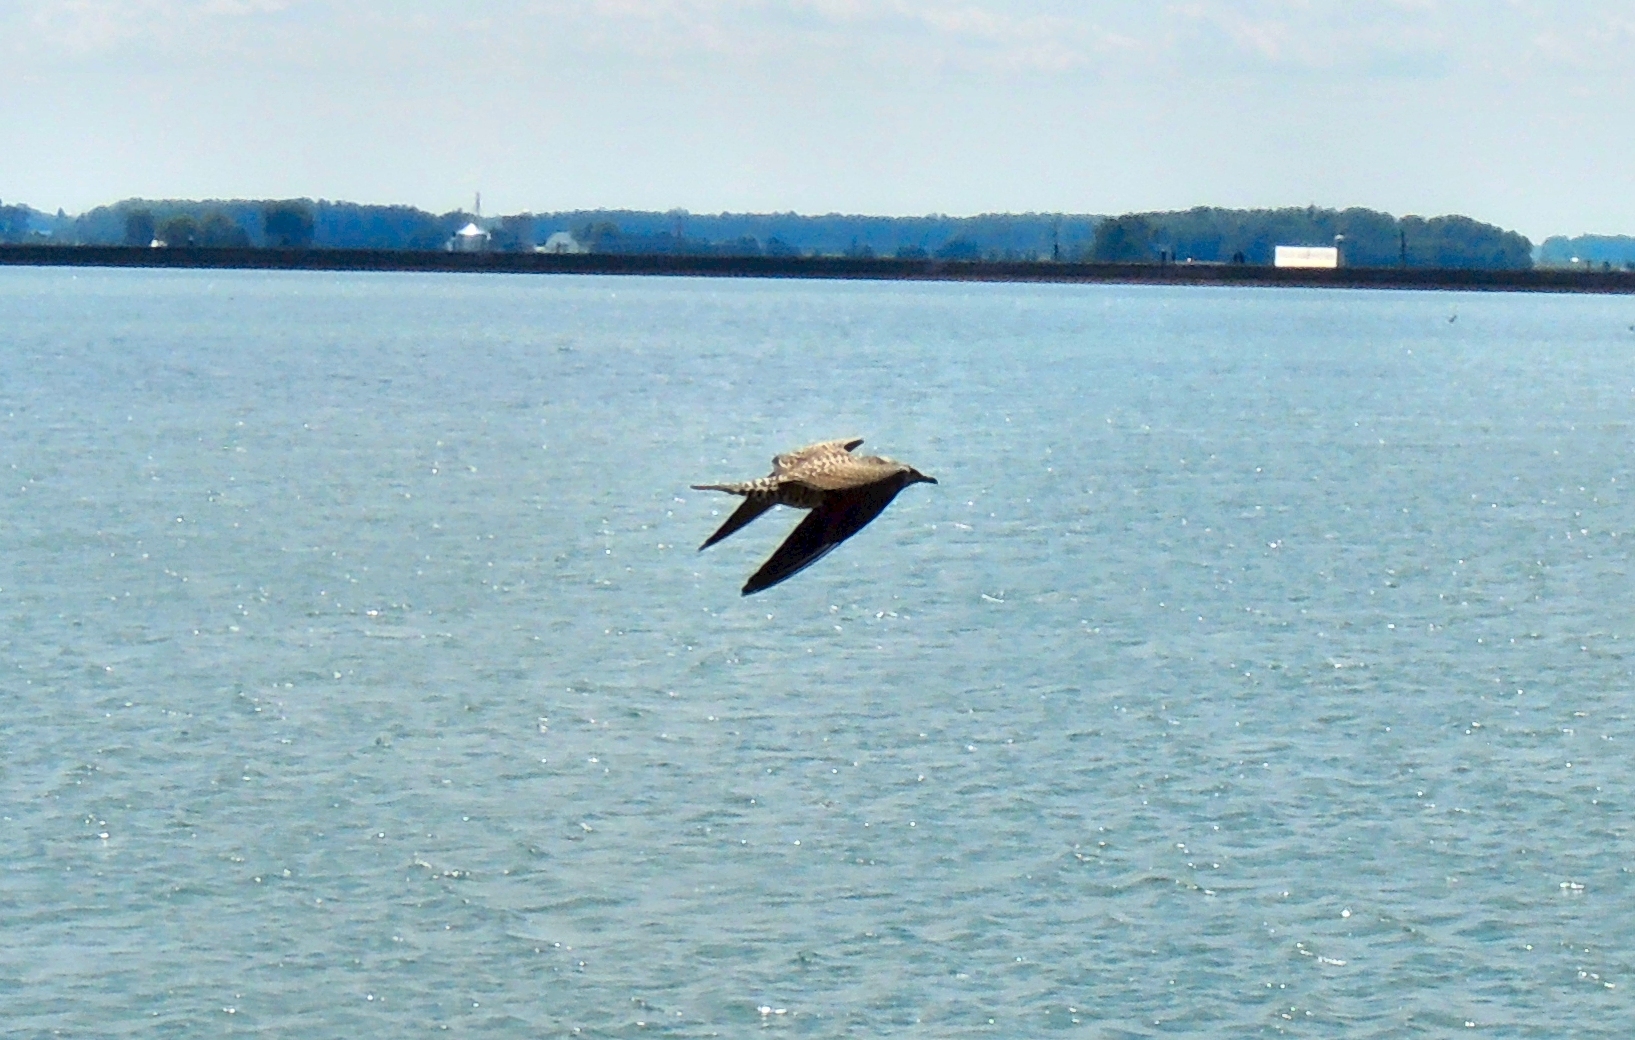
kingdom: Animalia
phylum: Chordata
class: Aves
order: Charadriiformes
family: Stercorariidae
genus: Stercorarius
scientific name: Stercorarius longicaudus
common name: Long-tailed jaeger
